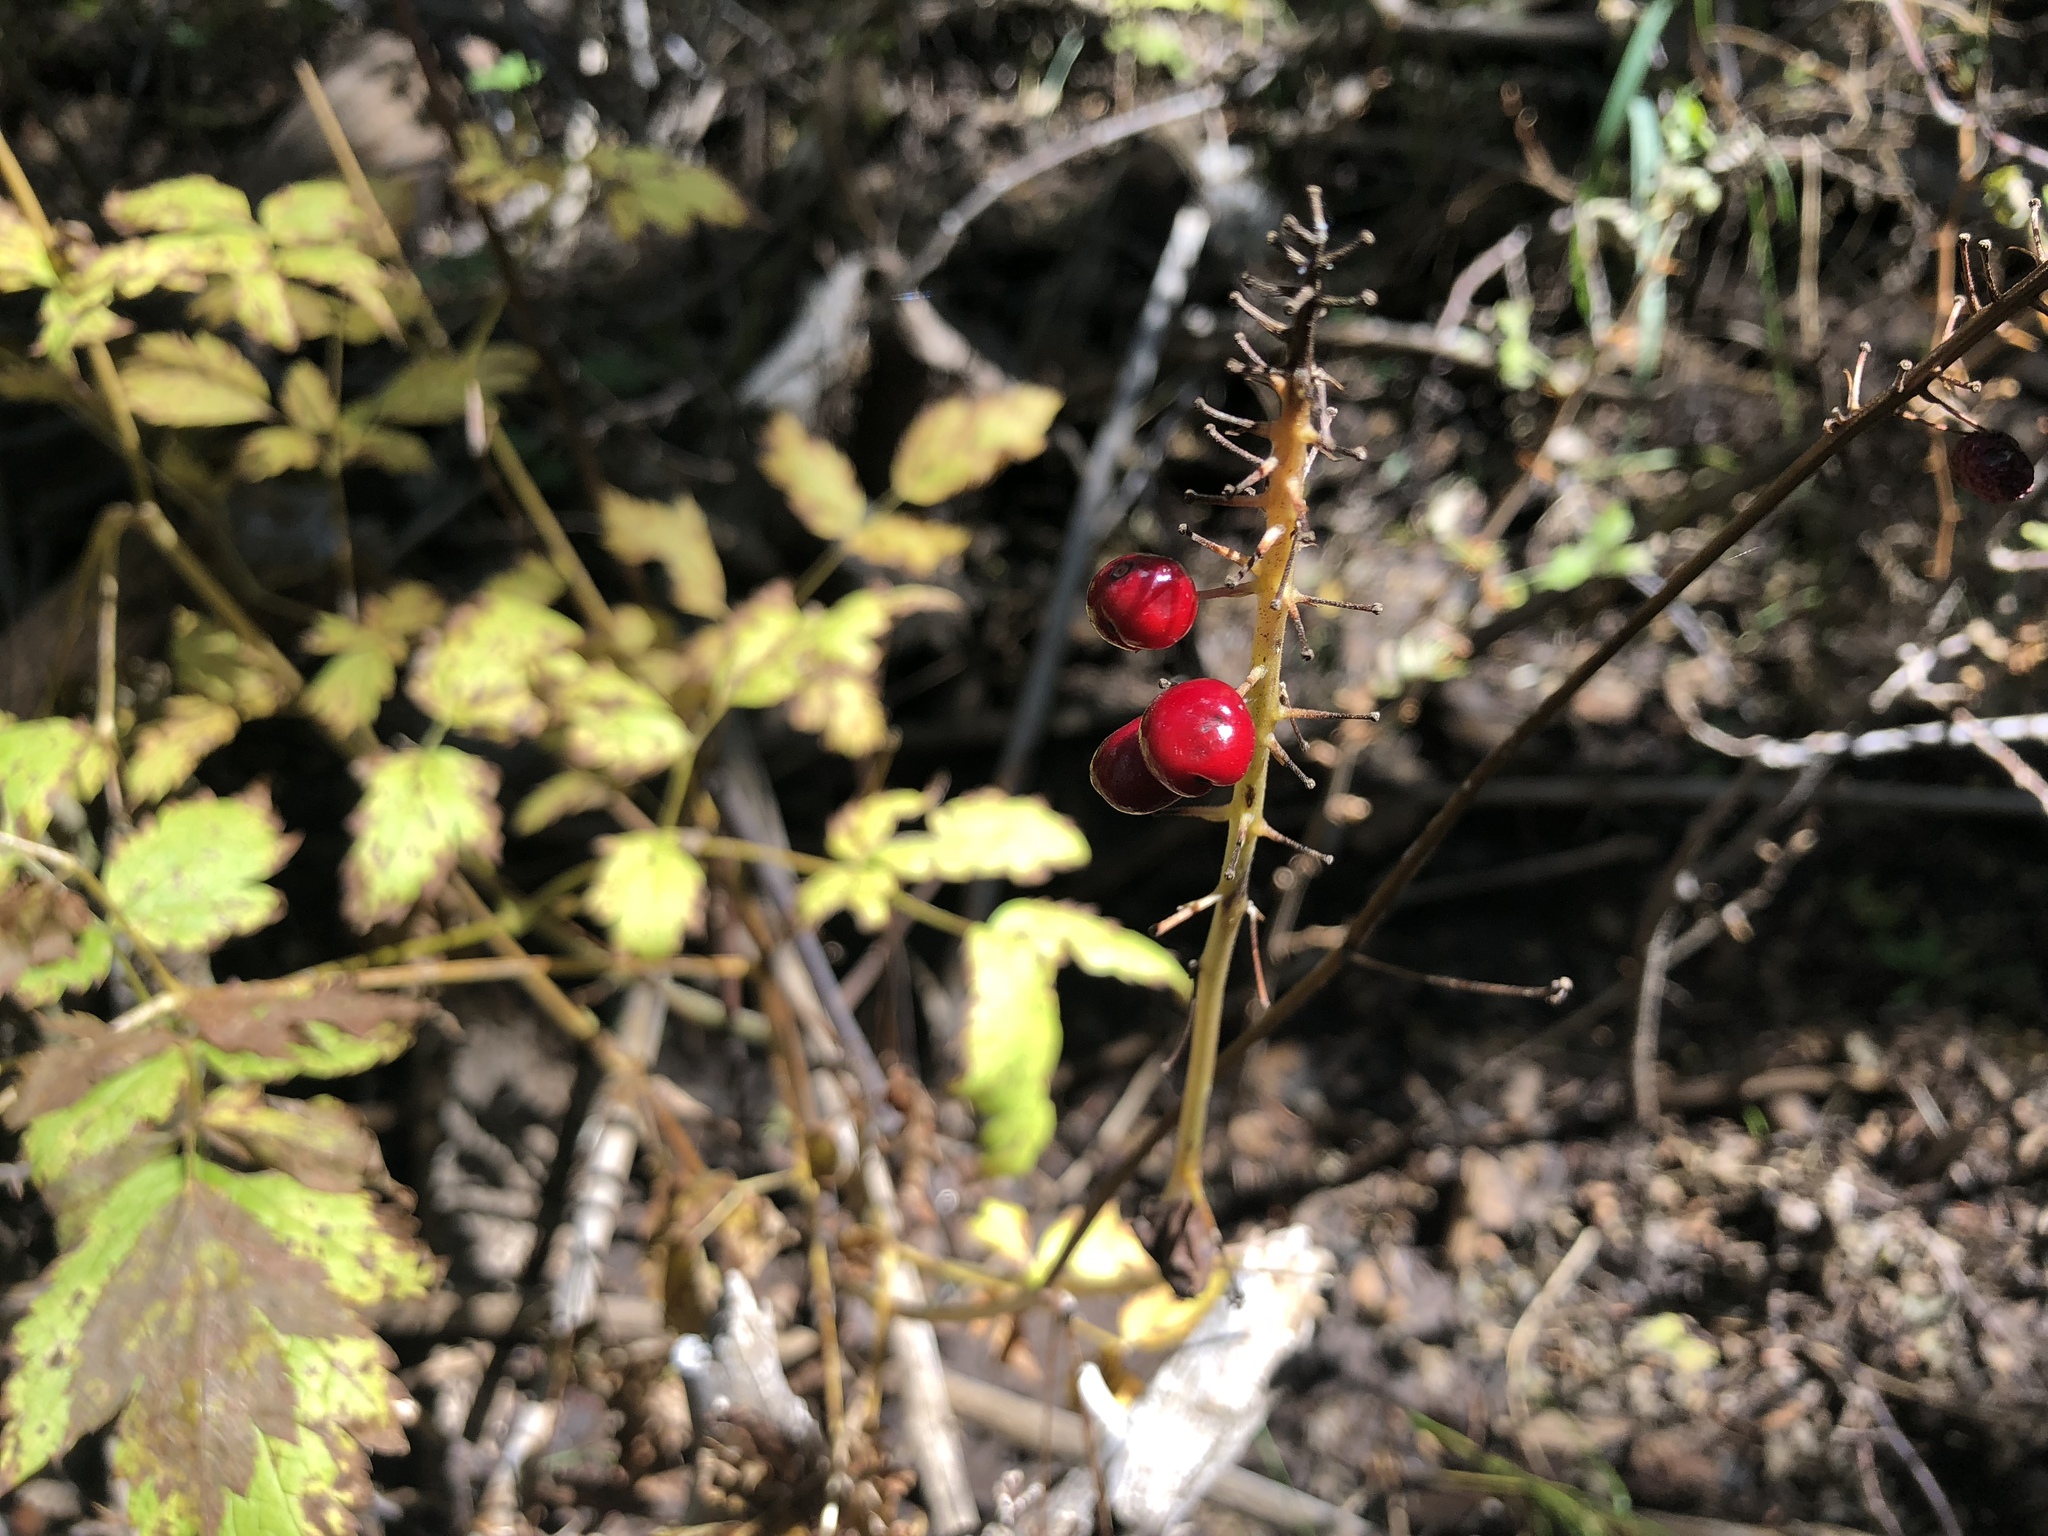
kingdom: Plantae
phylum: Tracheophyta
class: Magnoliopsida
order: Ranunculales
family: Ranunculaceae
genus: Actaea
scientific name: Actaea rubra
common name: Red baneberry
